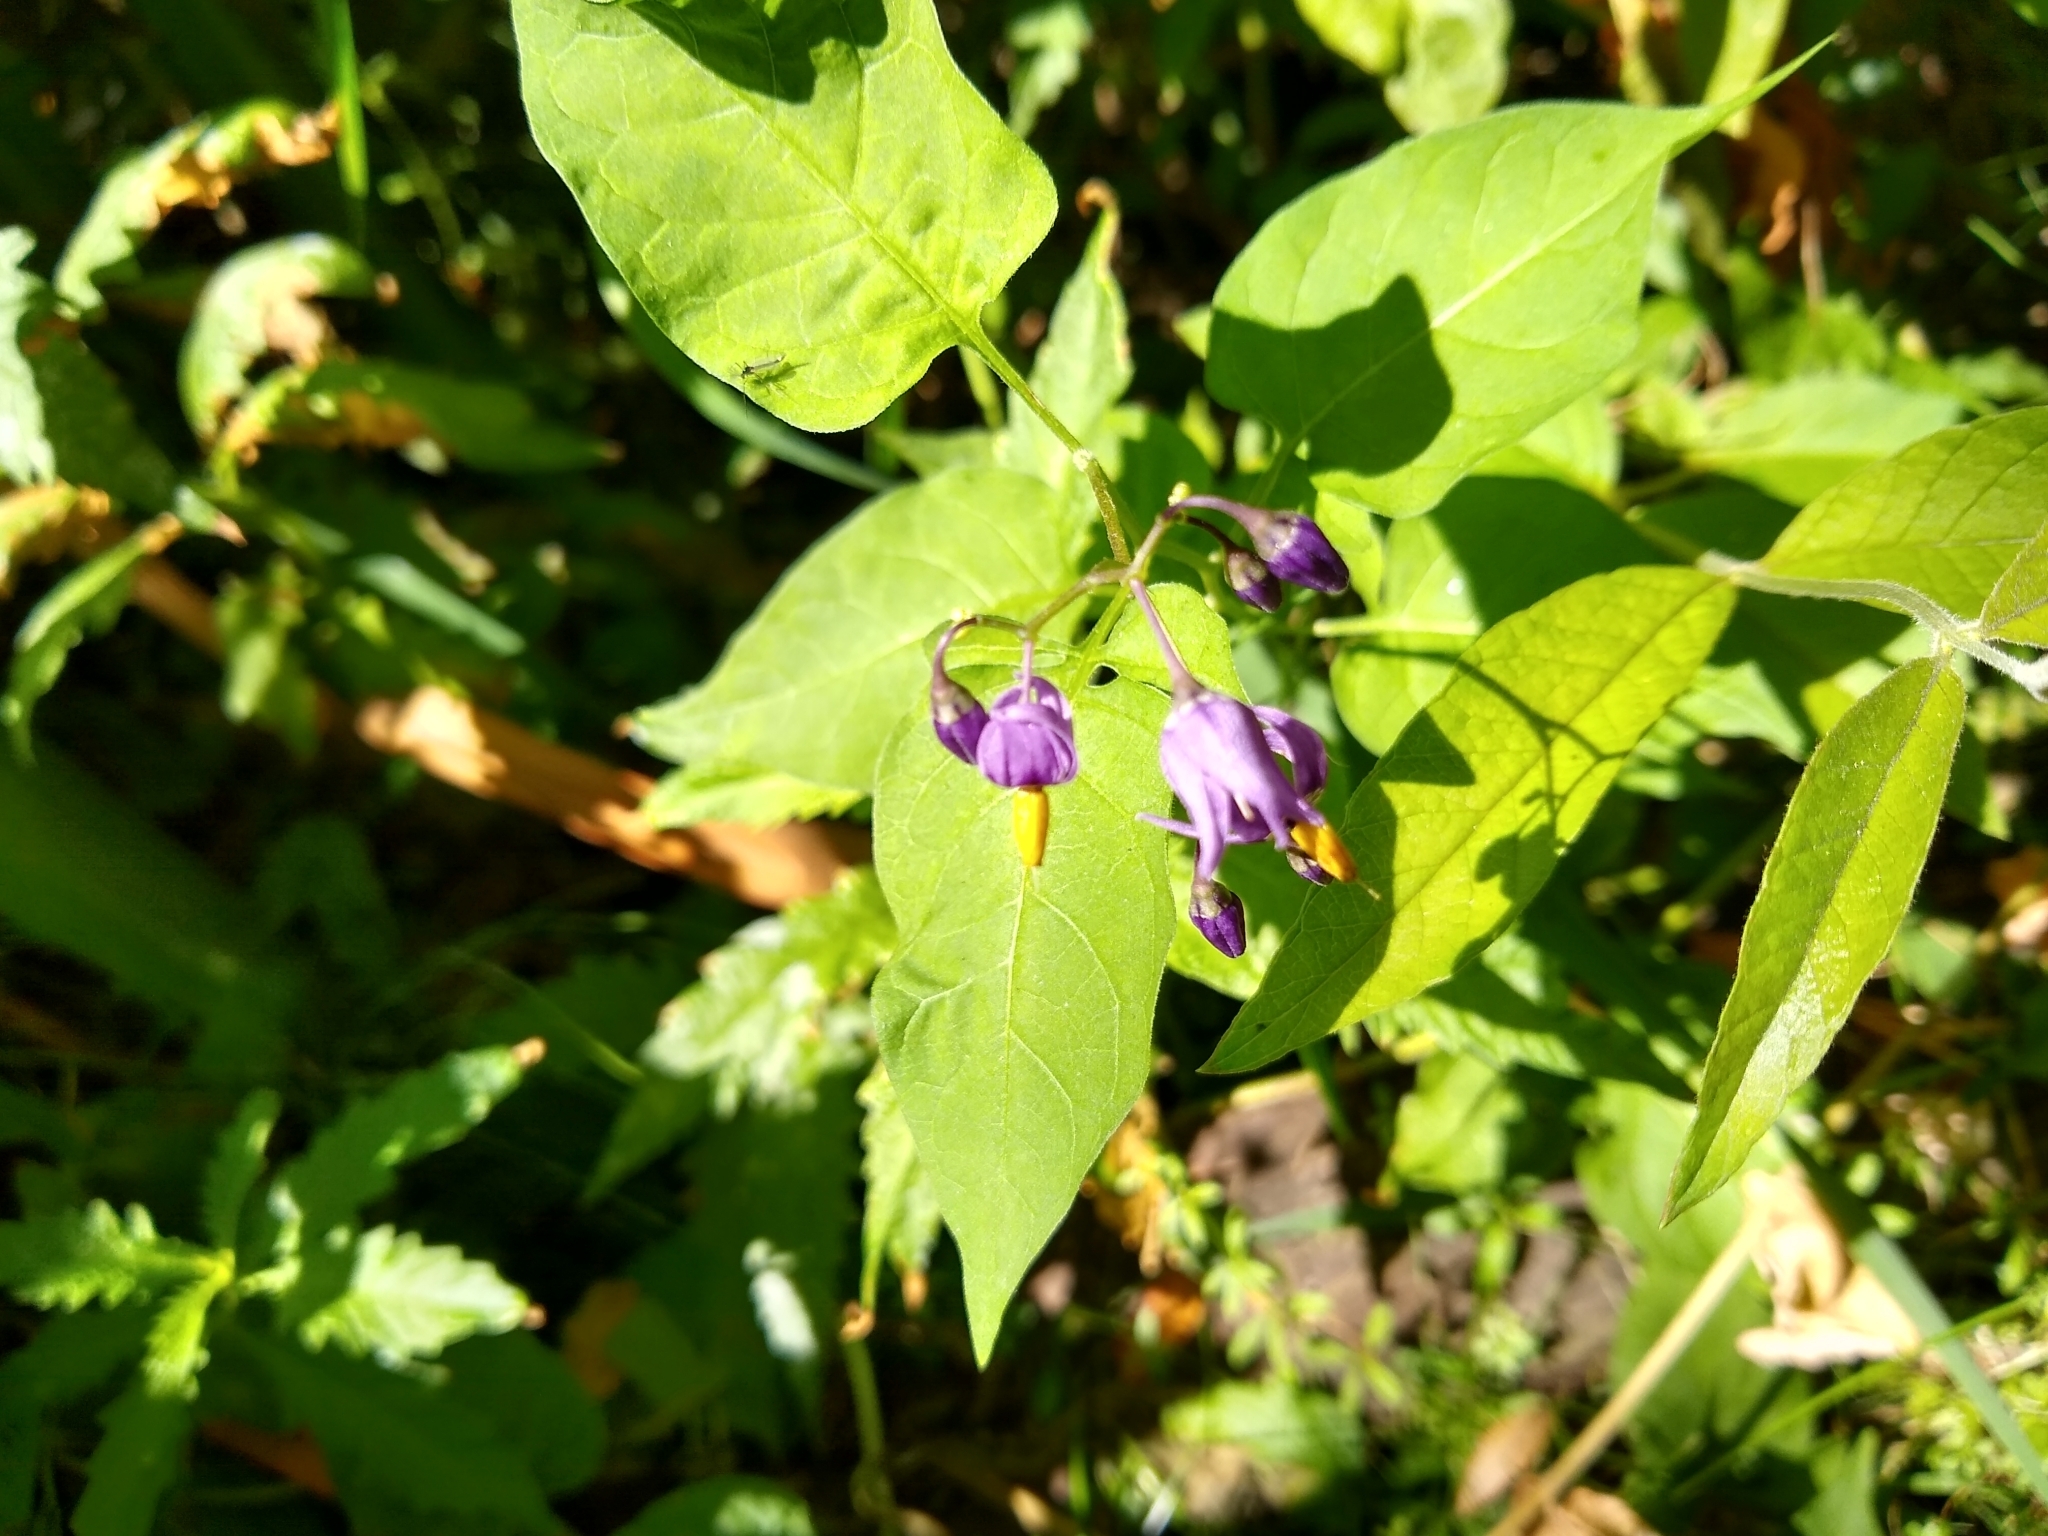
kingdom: Plantae
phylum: Tracheophyta
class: Magnoliopsida
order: Solanales
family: Solanaceae
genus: Solanum
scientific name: Solanum dulcamara
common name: Climbing nightshade
